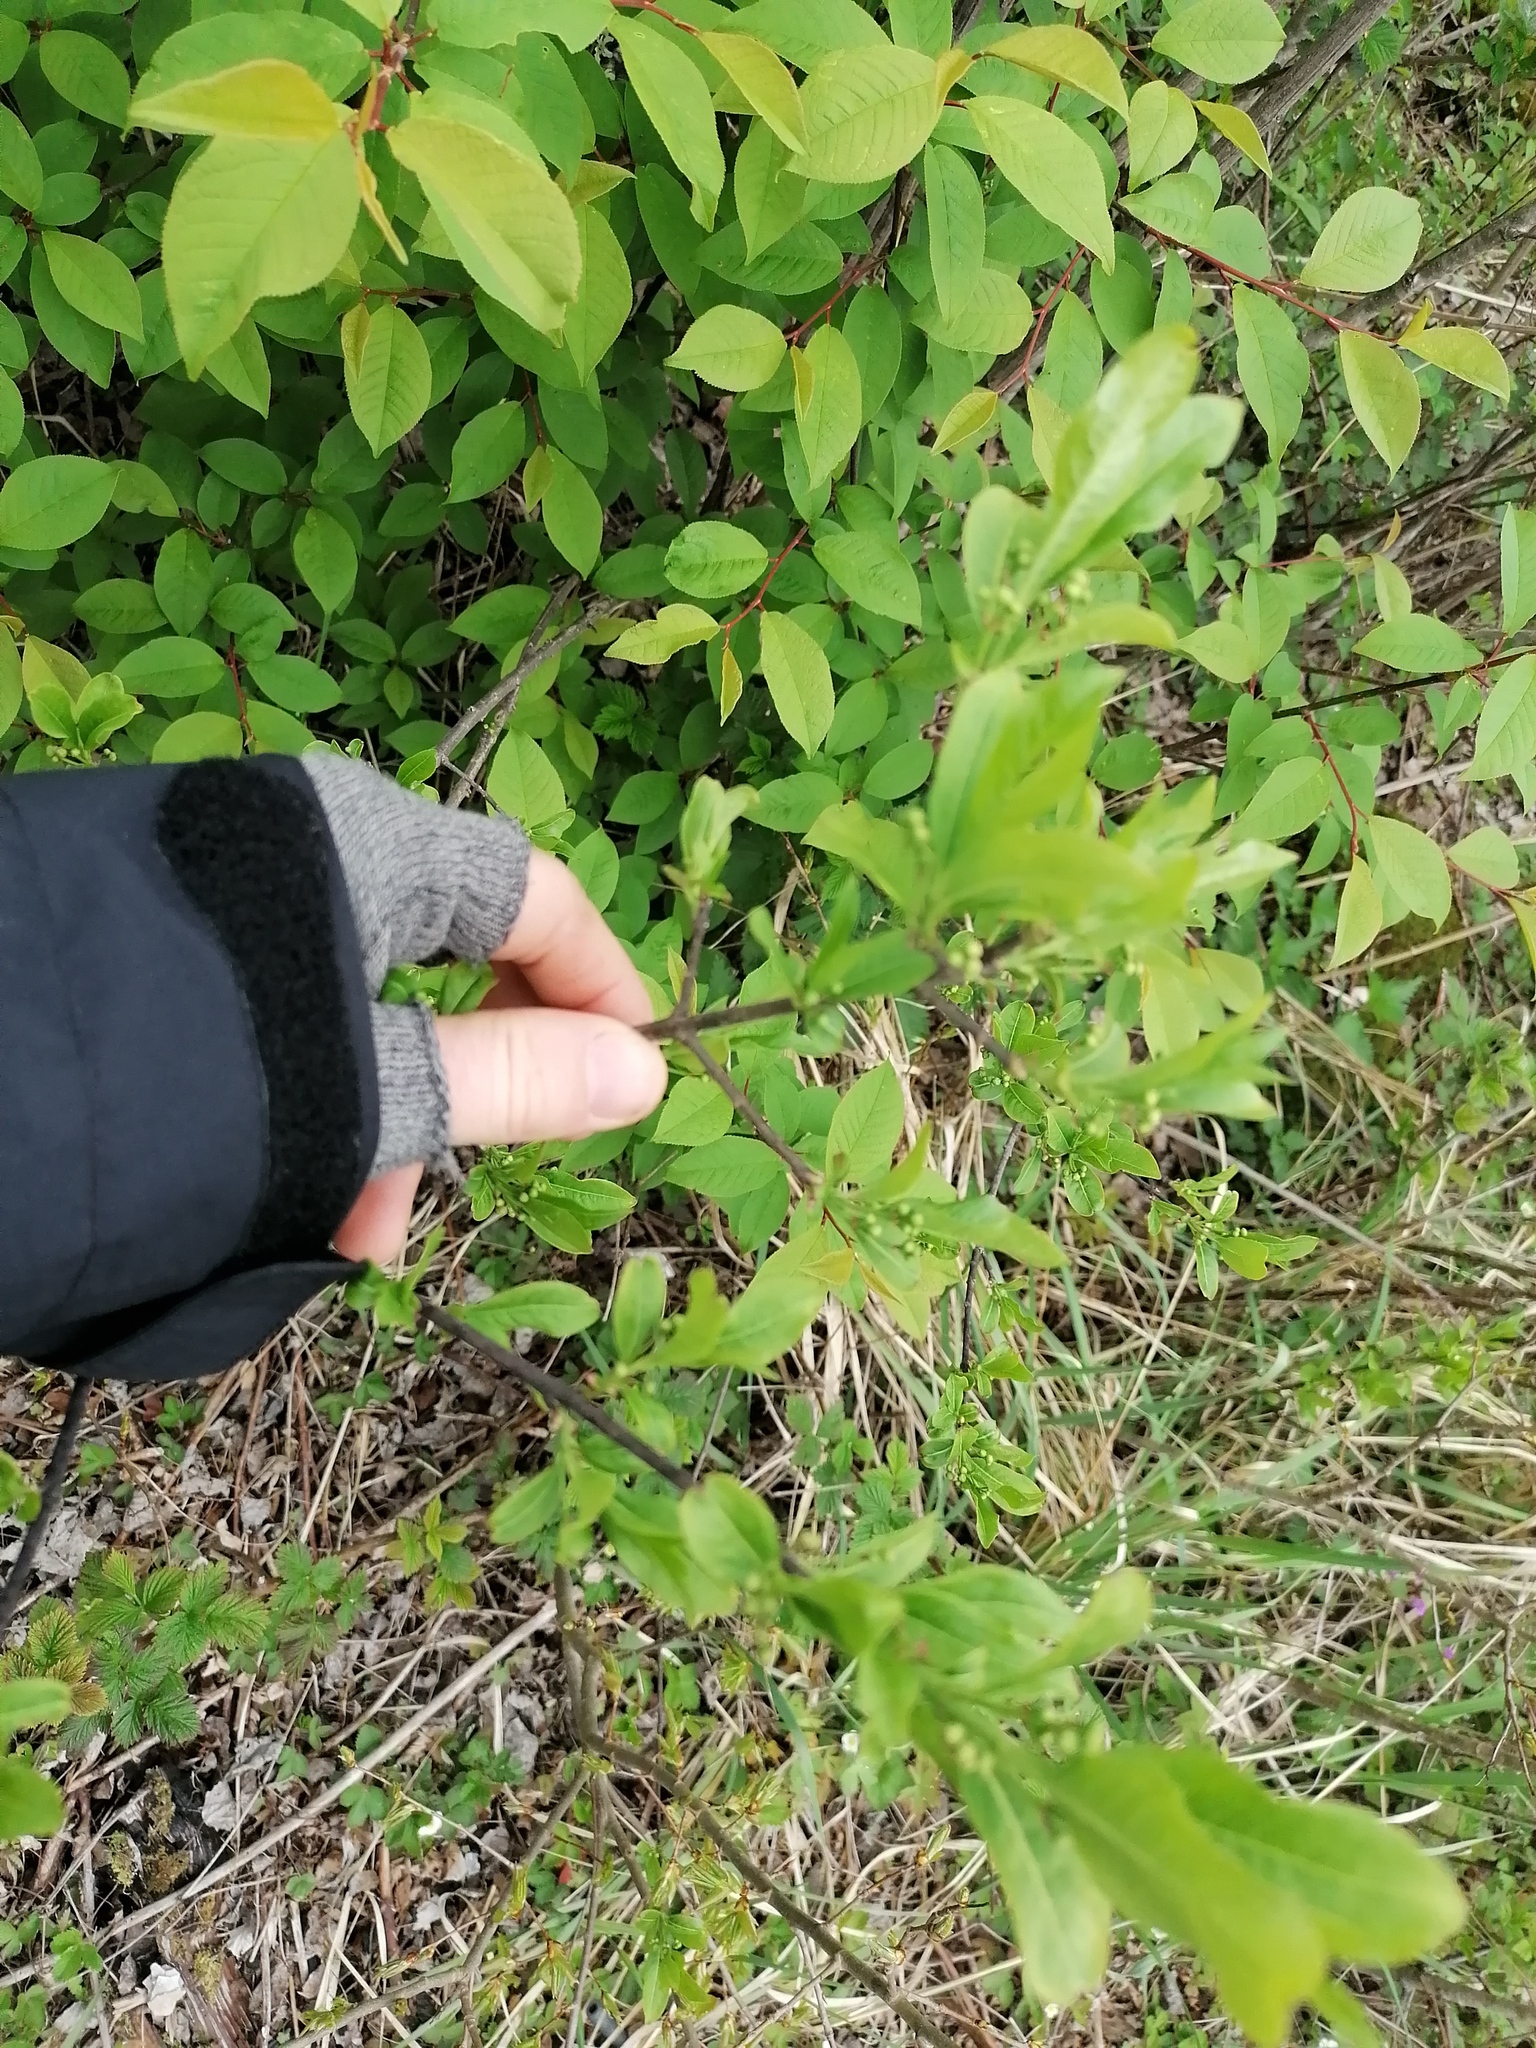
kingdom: Plantae
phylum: Tracheophyta
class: Magnoliopsida
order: Celastrales
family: Celastraceae
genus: Euonymus
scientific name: Euonymus europaeus
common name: Spindle
